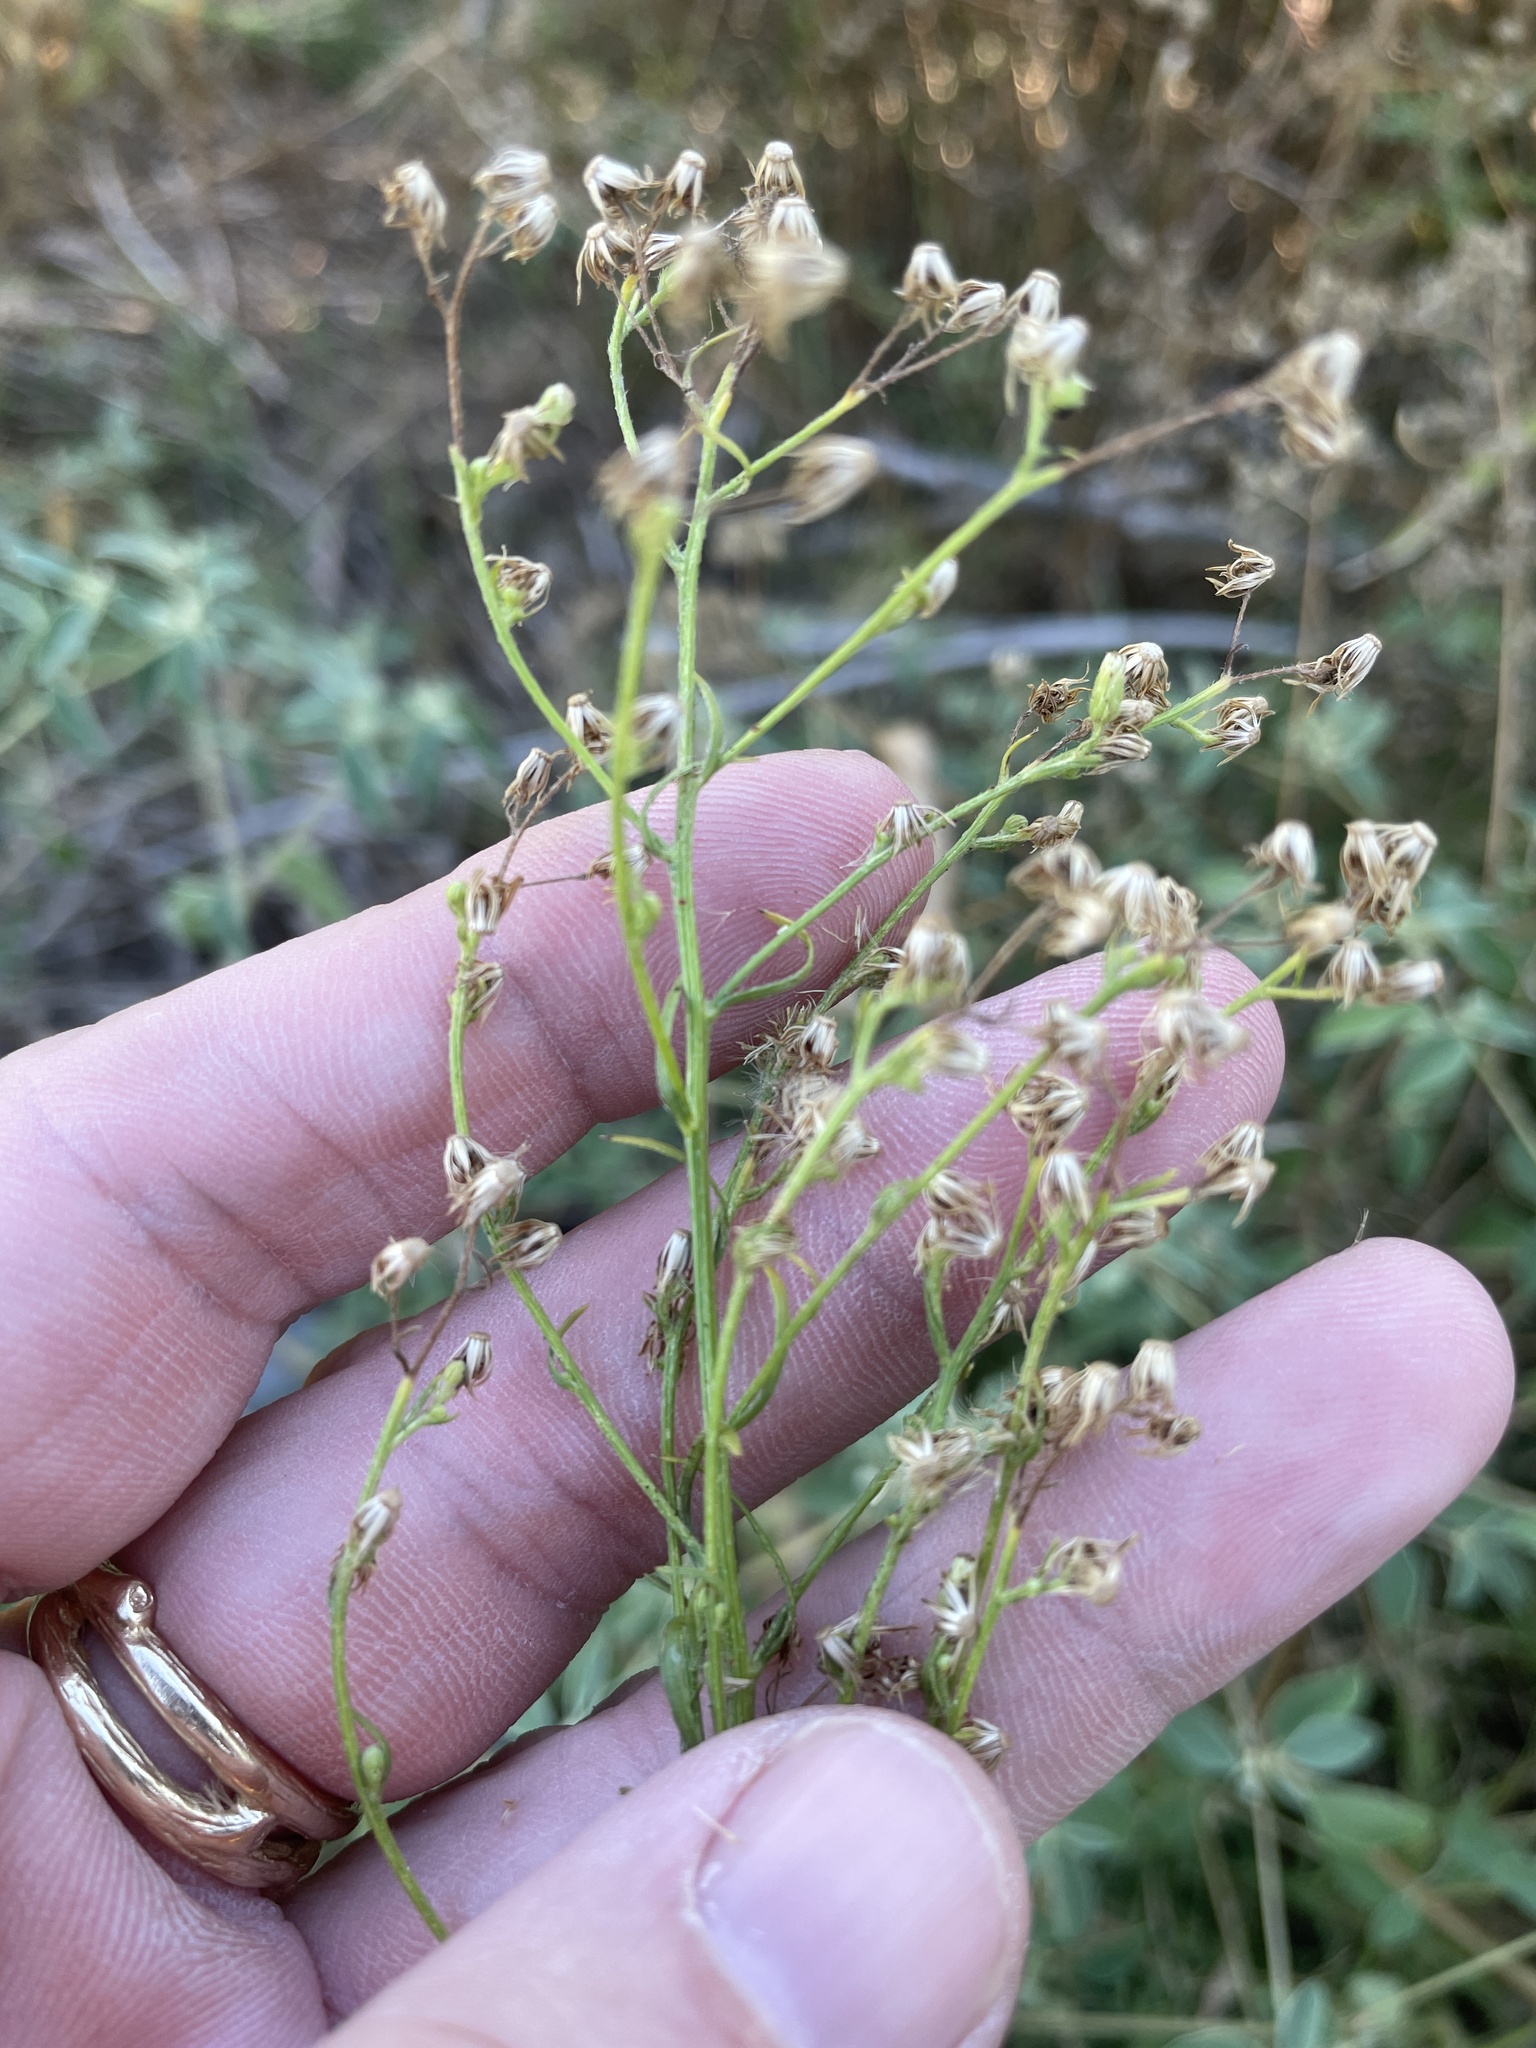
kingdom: Plantae
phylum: Tracheophyta
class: Magnoliopsida
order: Asterales
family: Asteraceae
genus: Erigeron
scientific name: Erigeron canadensis
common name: Canadian fleabane
